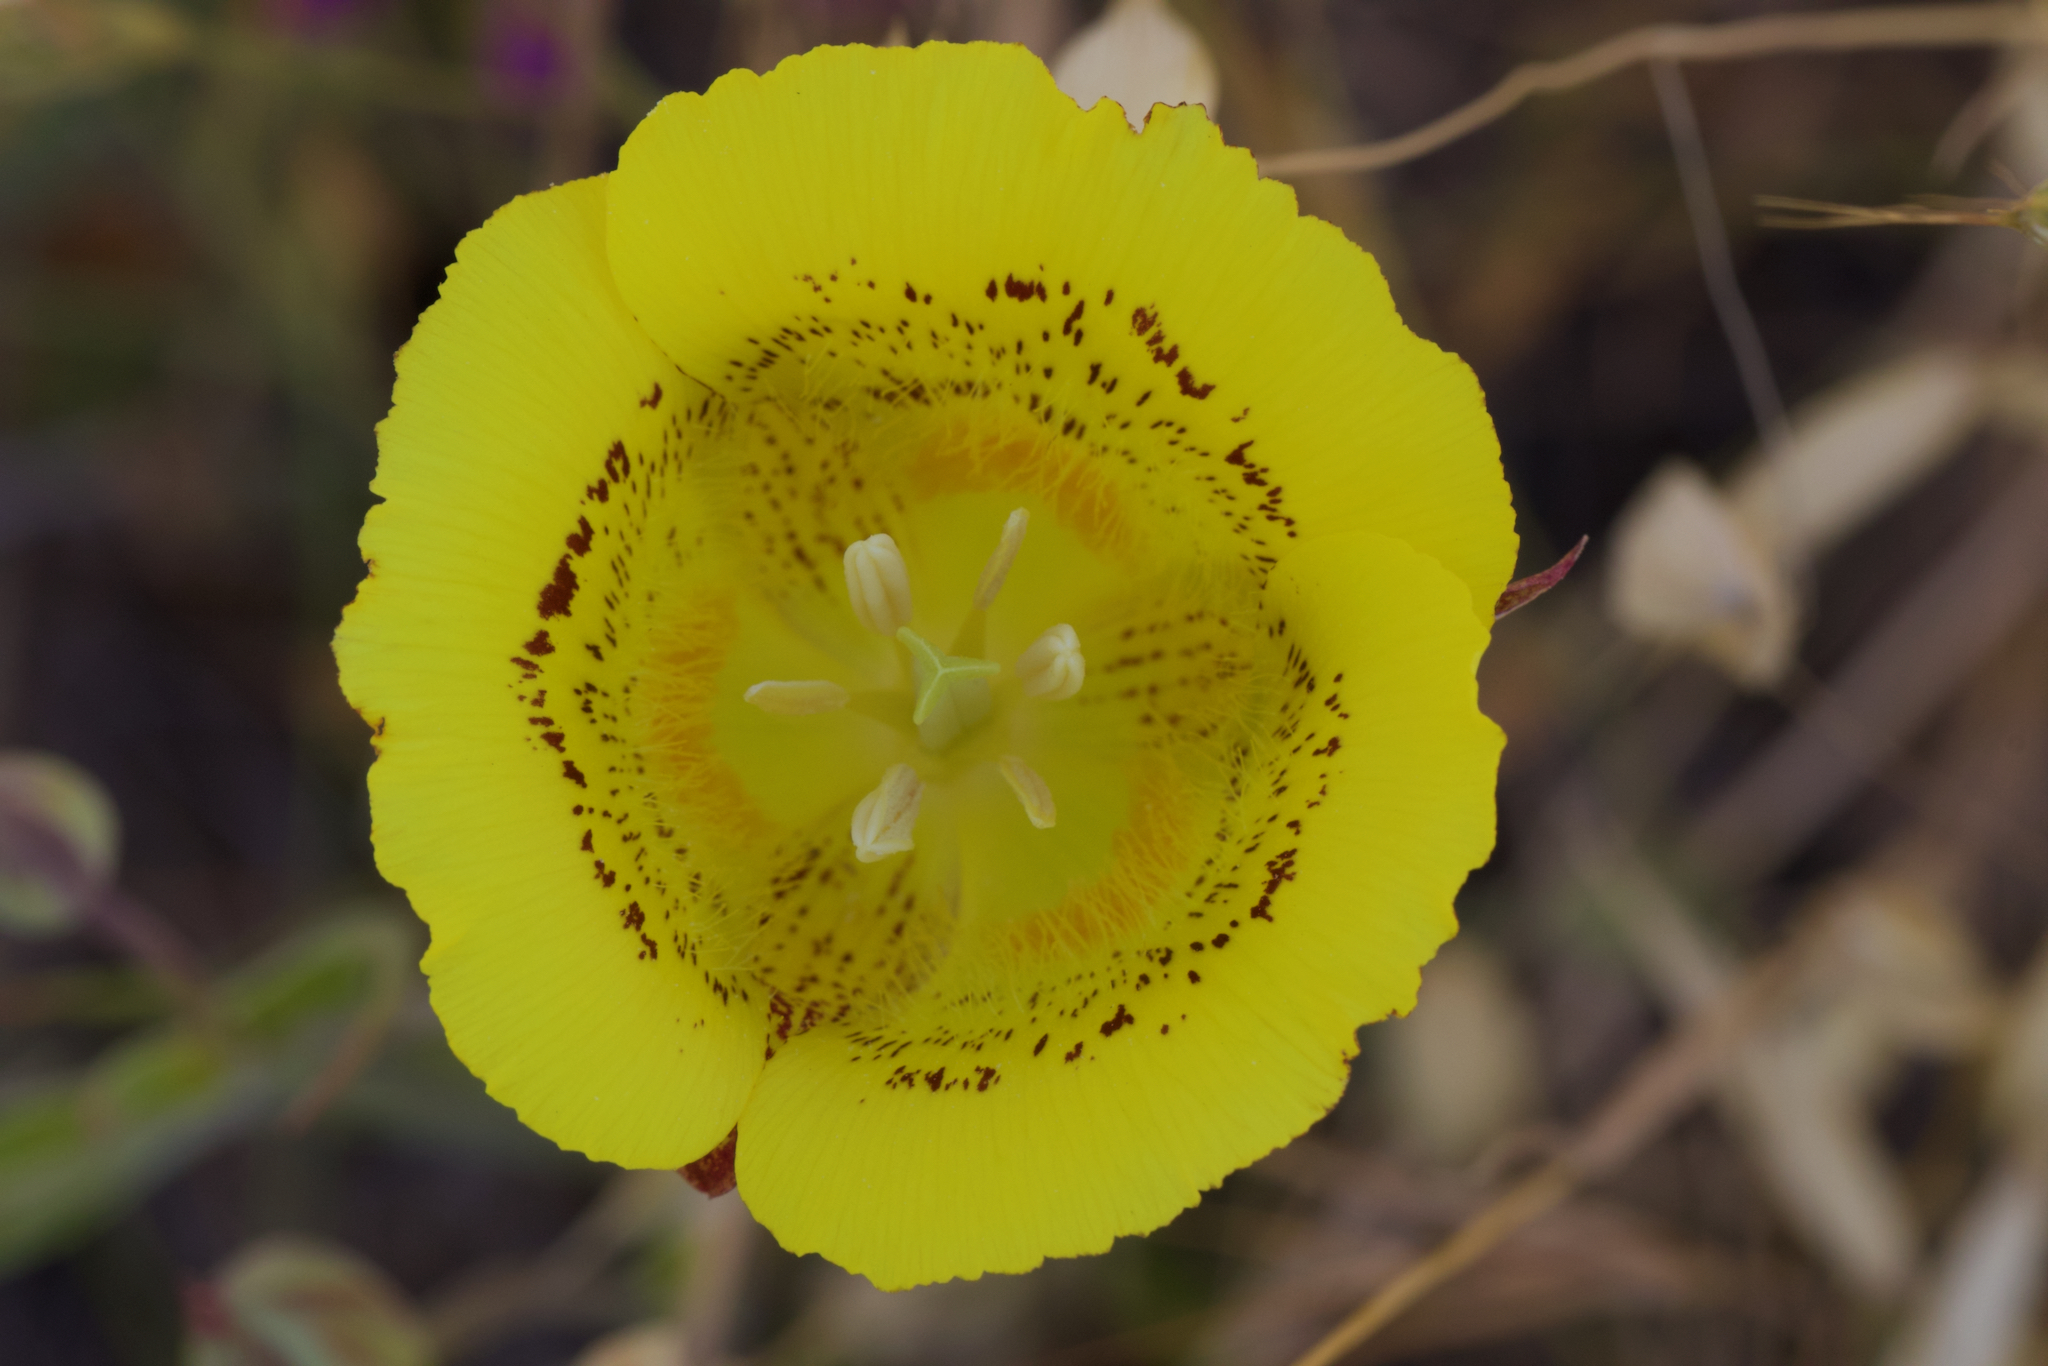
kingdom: Plantae
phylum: Tracheophyta
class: Liliopsida
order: Liliales
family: Liliaceae
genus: Calochortus
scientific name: Calochortus luteus
